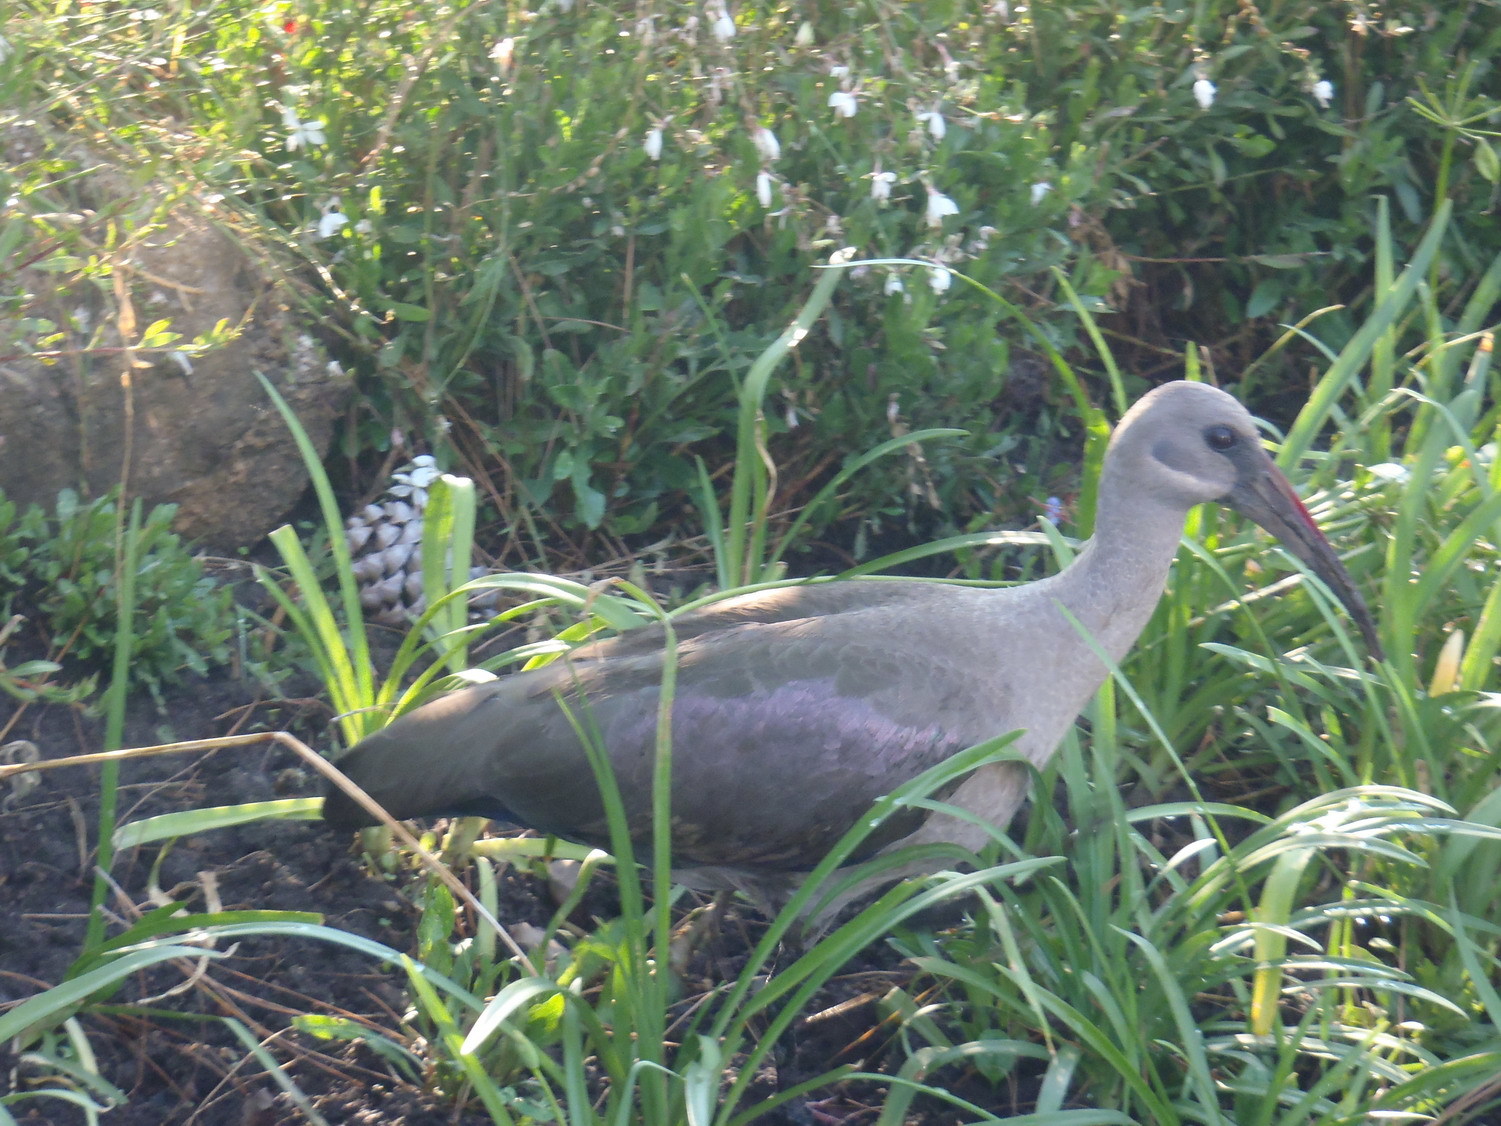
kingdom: Animalia
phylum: Chordata
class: Aves
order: Pelecaniformes
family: Threskiornithidae
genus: Bostrychia
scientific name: Bostrychia hagedash
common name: Hadada ibis
